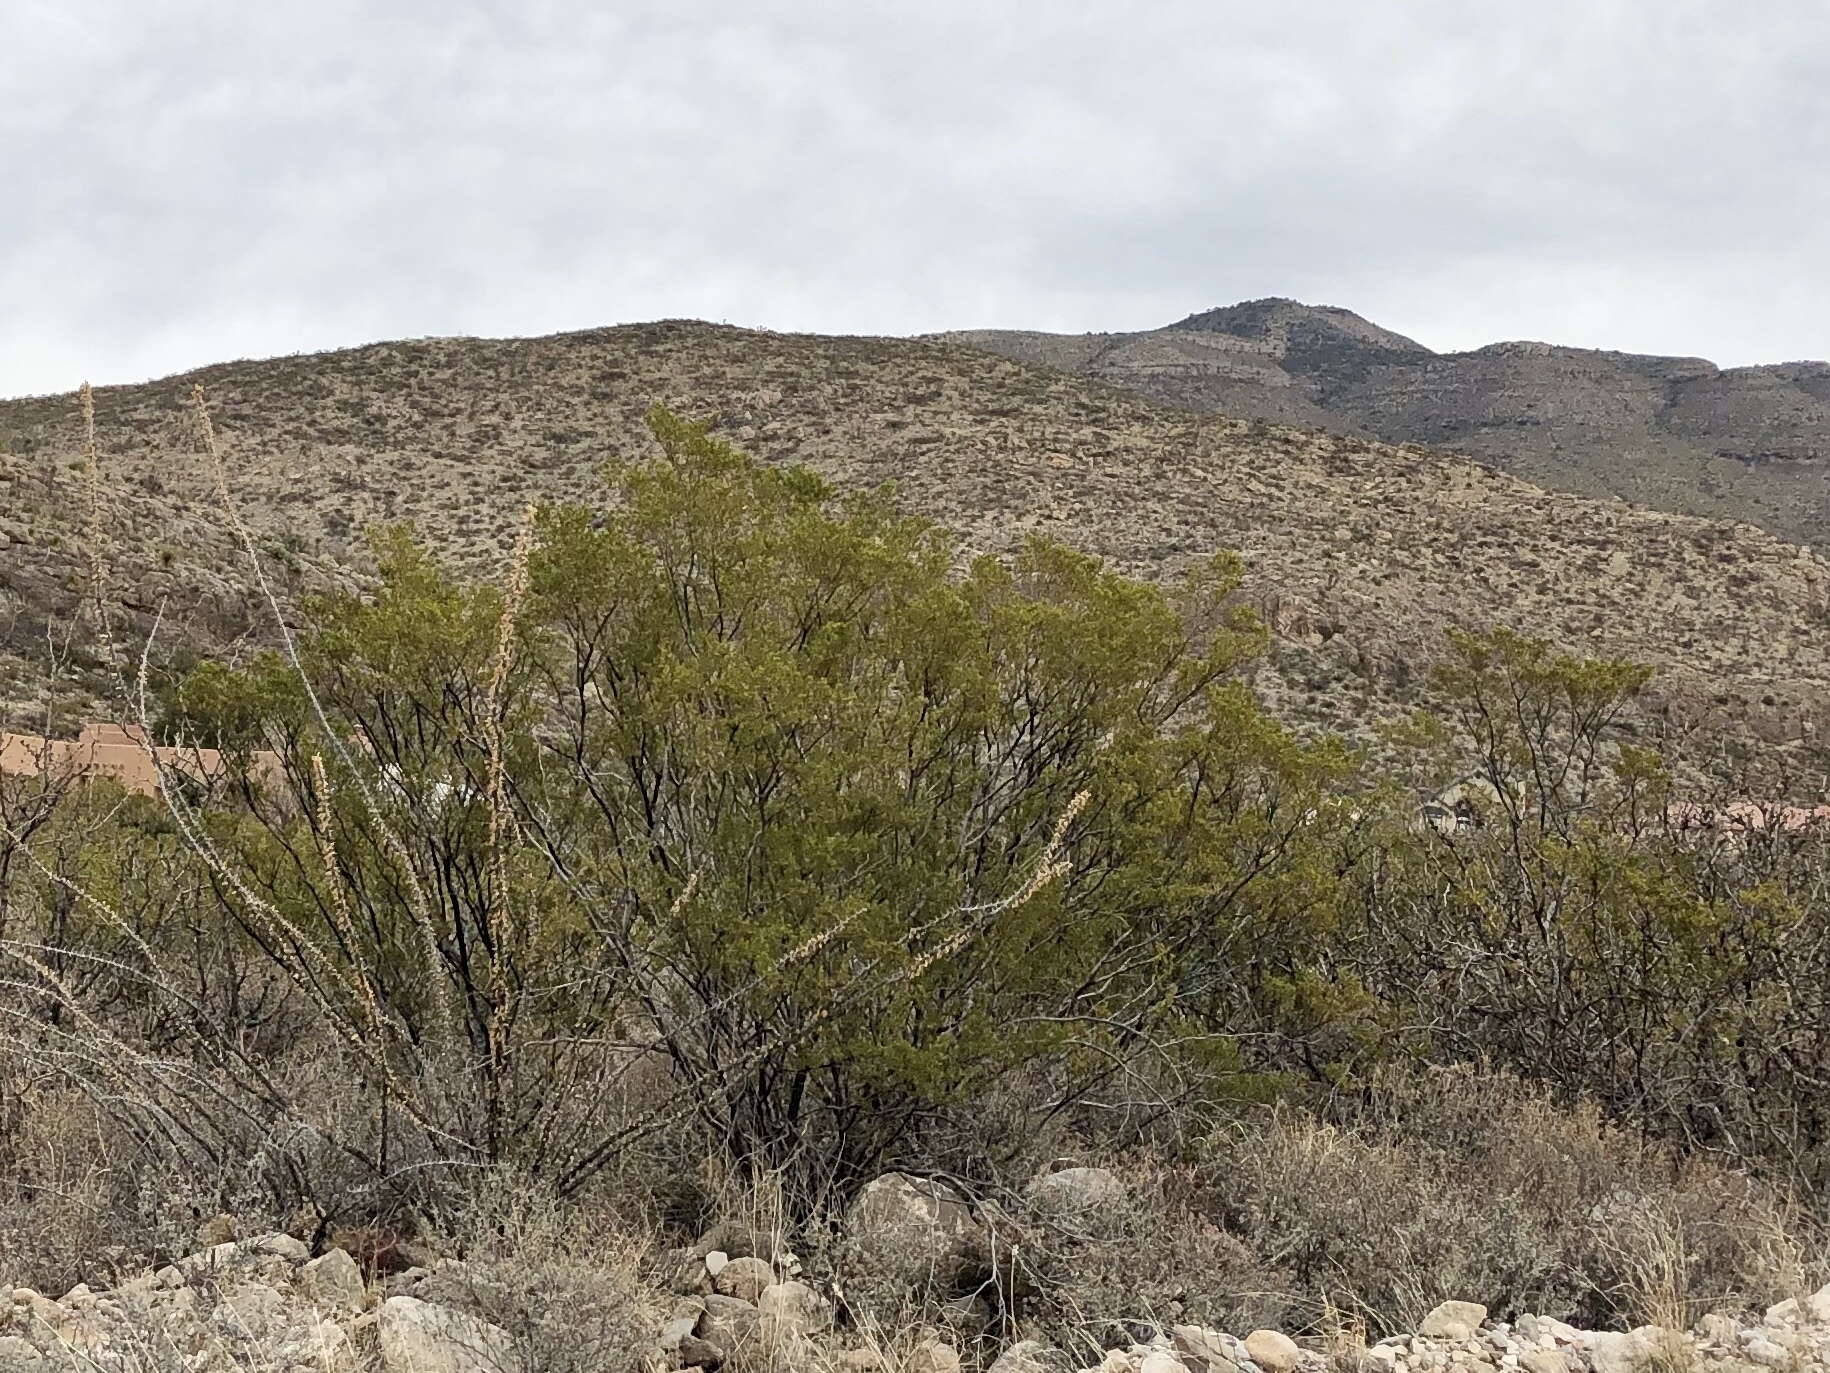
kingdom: Plantae
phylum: Tracheophyta
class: Magnoliopsida
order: Zygophyllales
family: Zygophyllaceae
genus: Larrea
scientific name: Larrea tridentata
